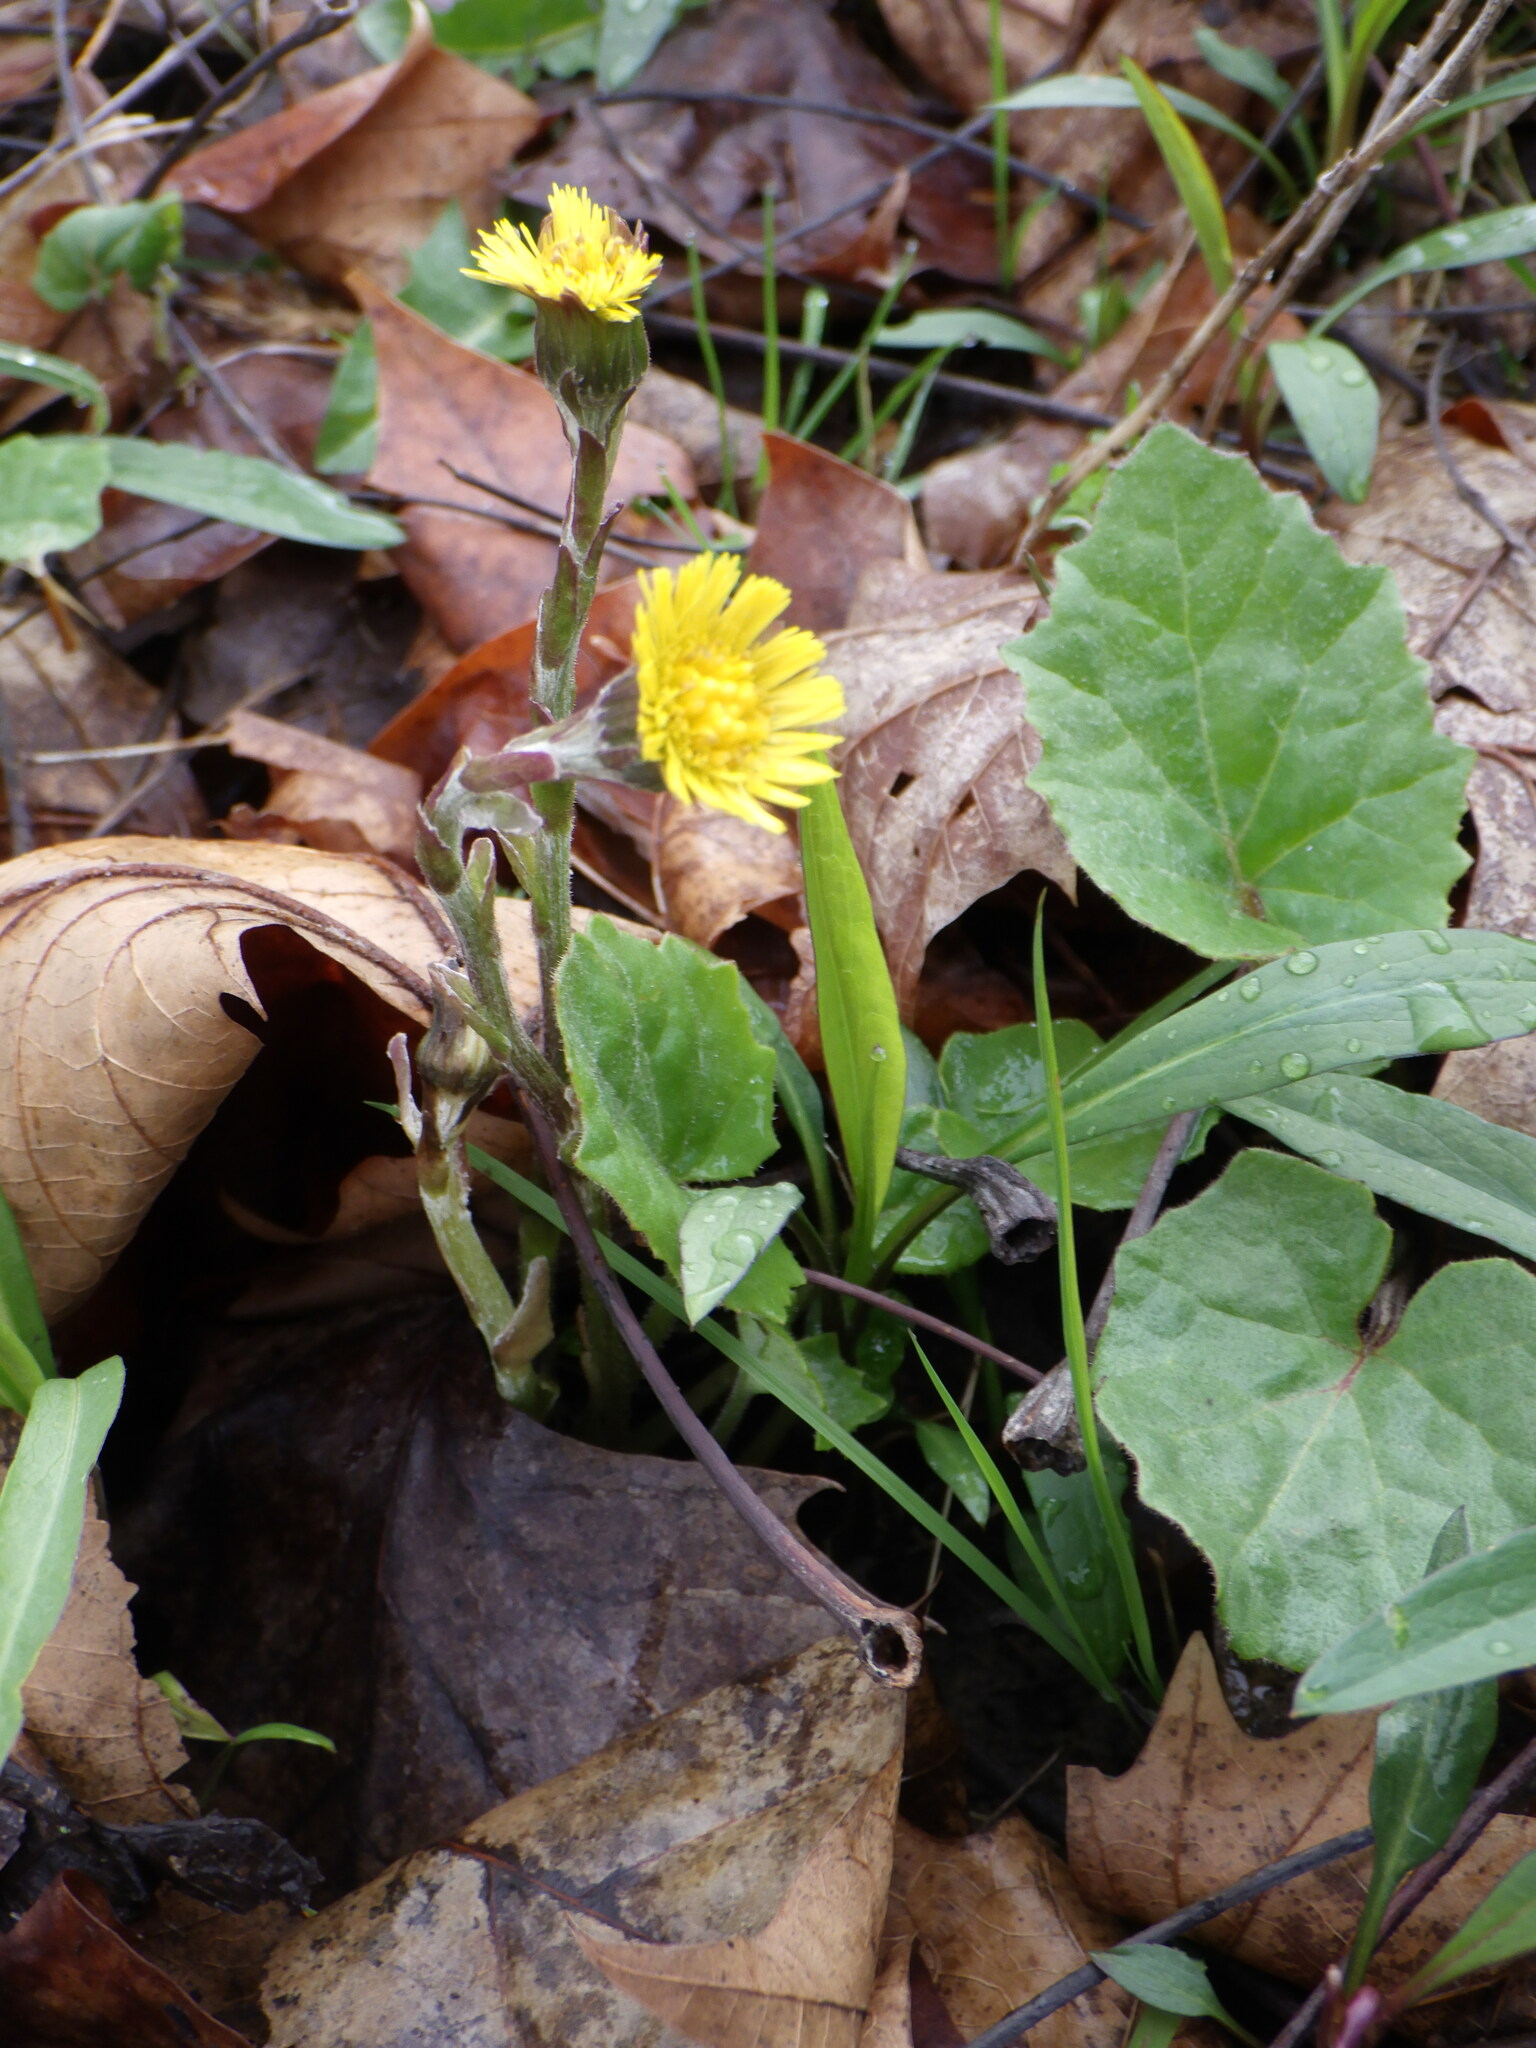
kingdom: Plantae
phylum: Tracheophyta
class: Magnoliopsida
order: Asterales
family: Asteraceae
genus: Tussilago
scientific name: Tussilago farfara
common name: Coltsfoot
